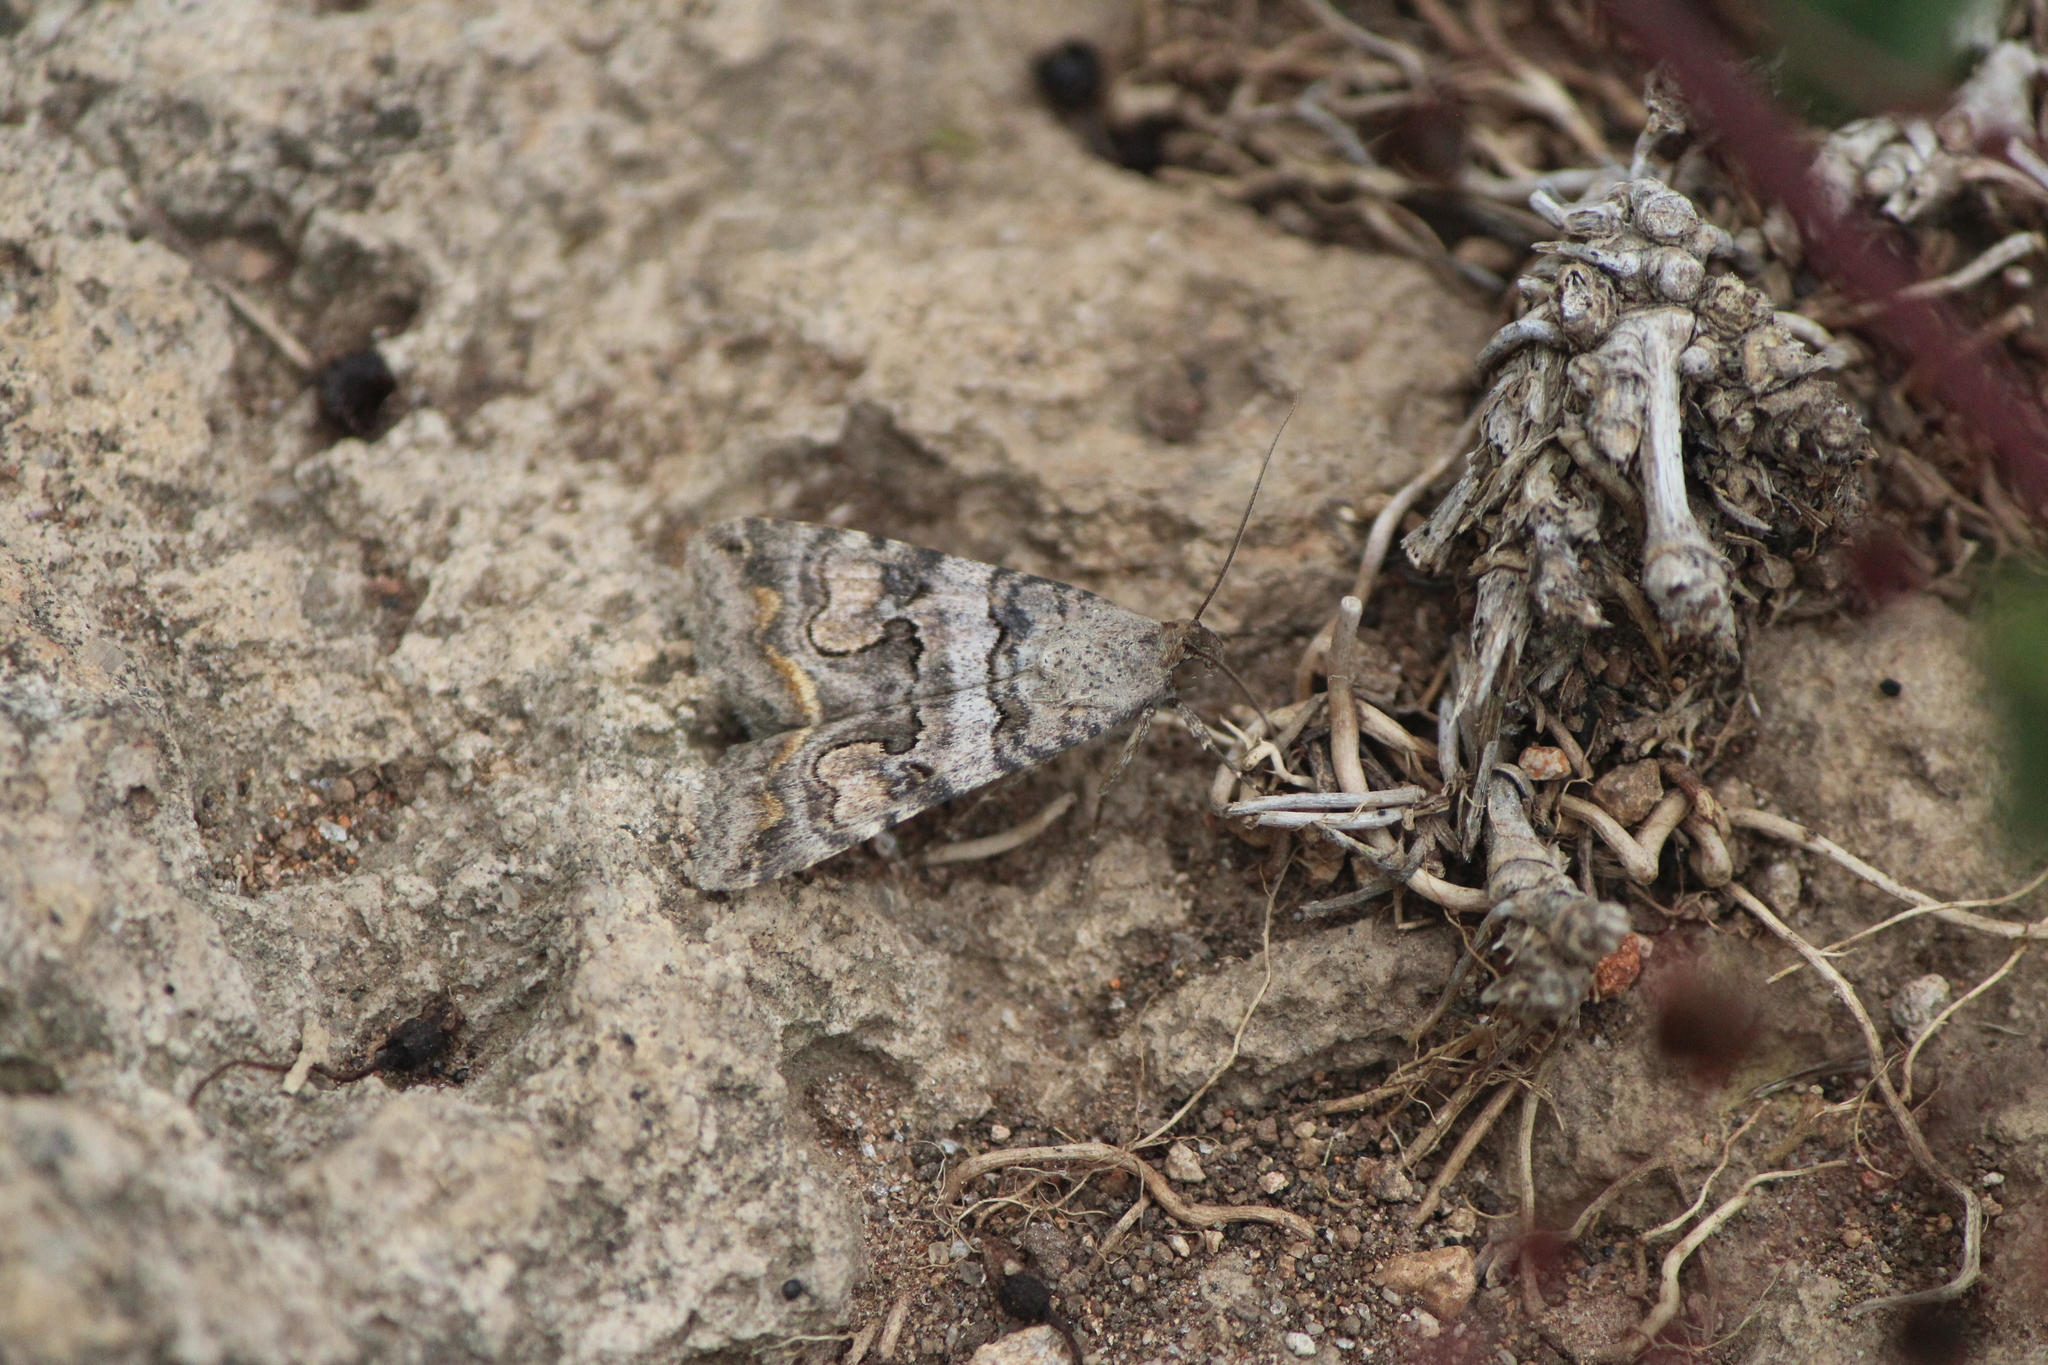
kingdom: Animalia
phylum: Arthropoda
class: Insecta
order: Lepidoptera
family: Erebidae
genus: Bulia
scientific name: Bulia deducta
